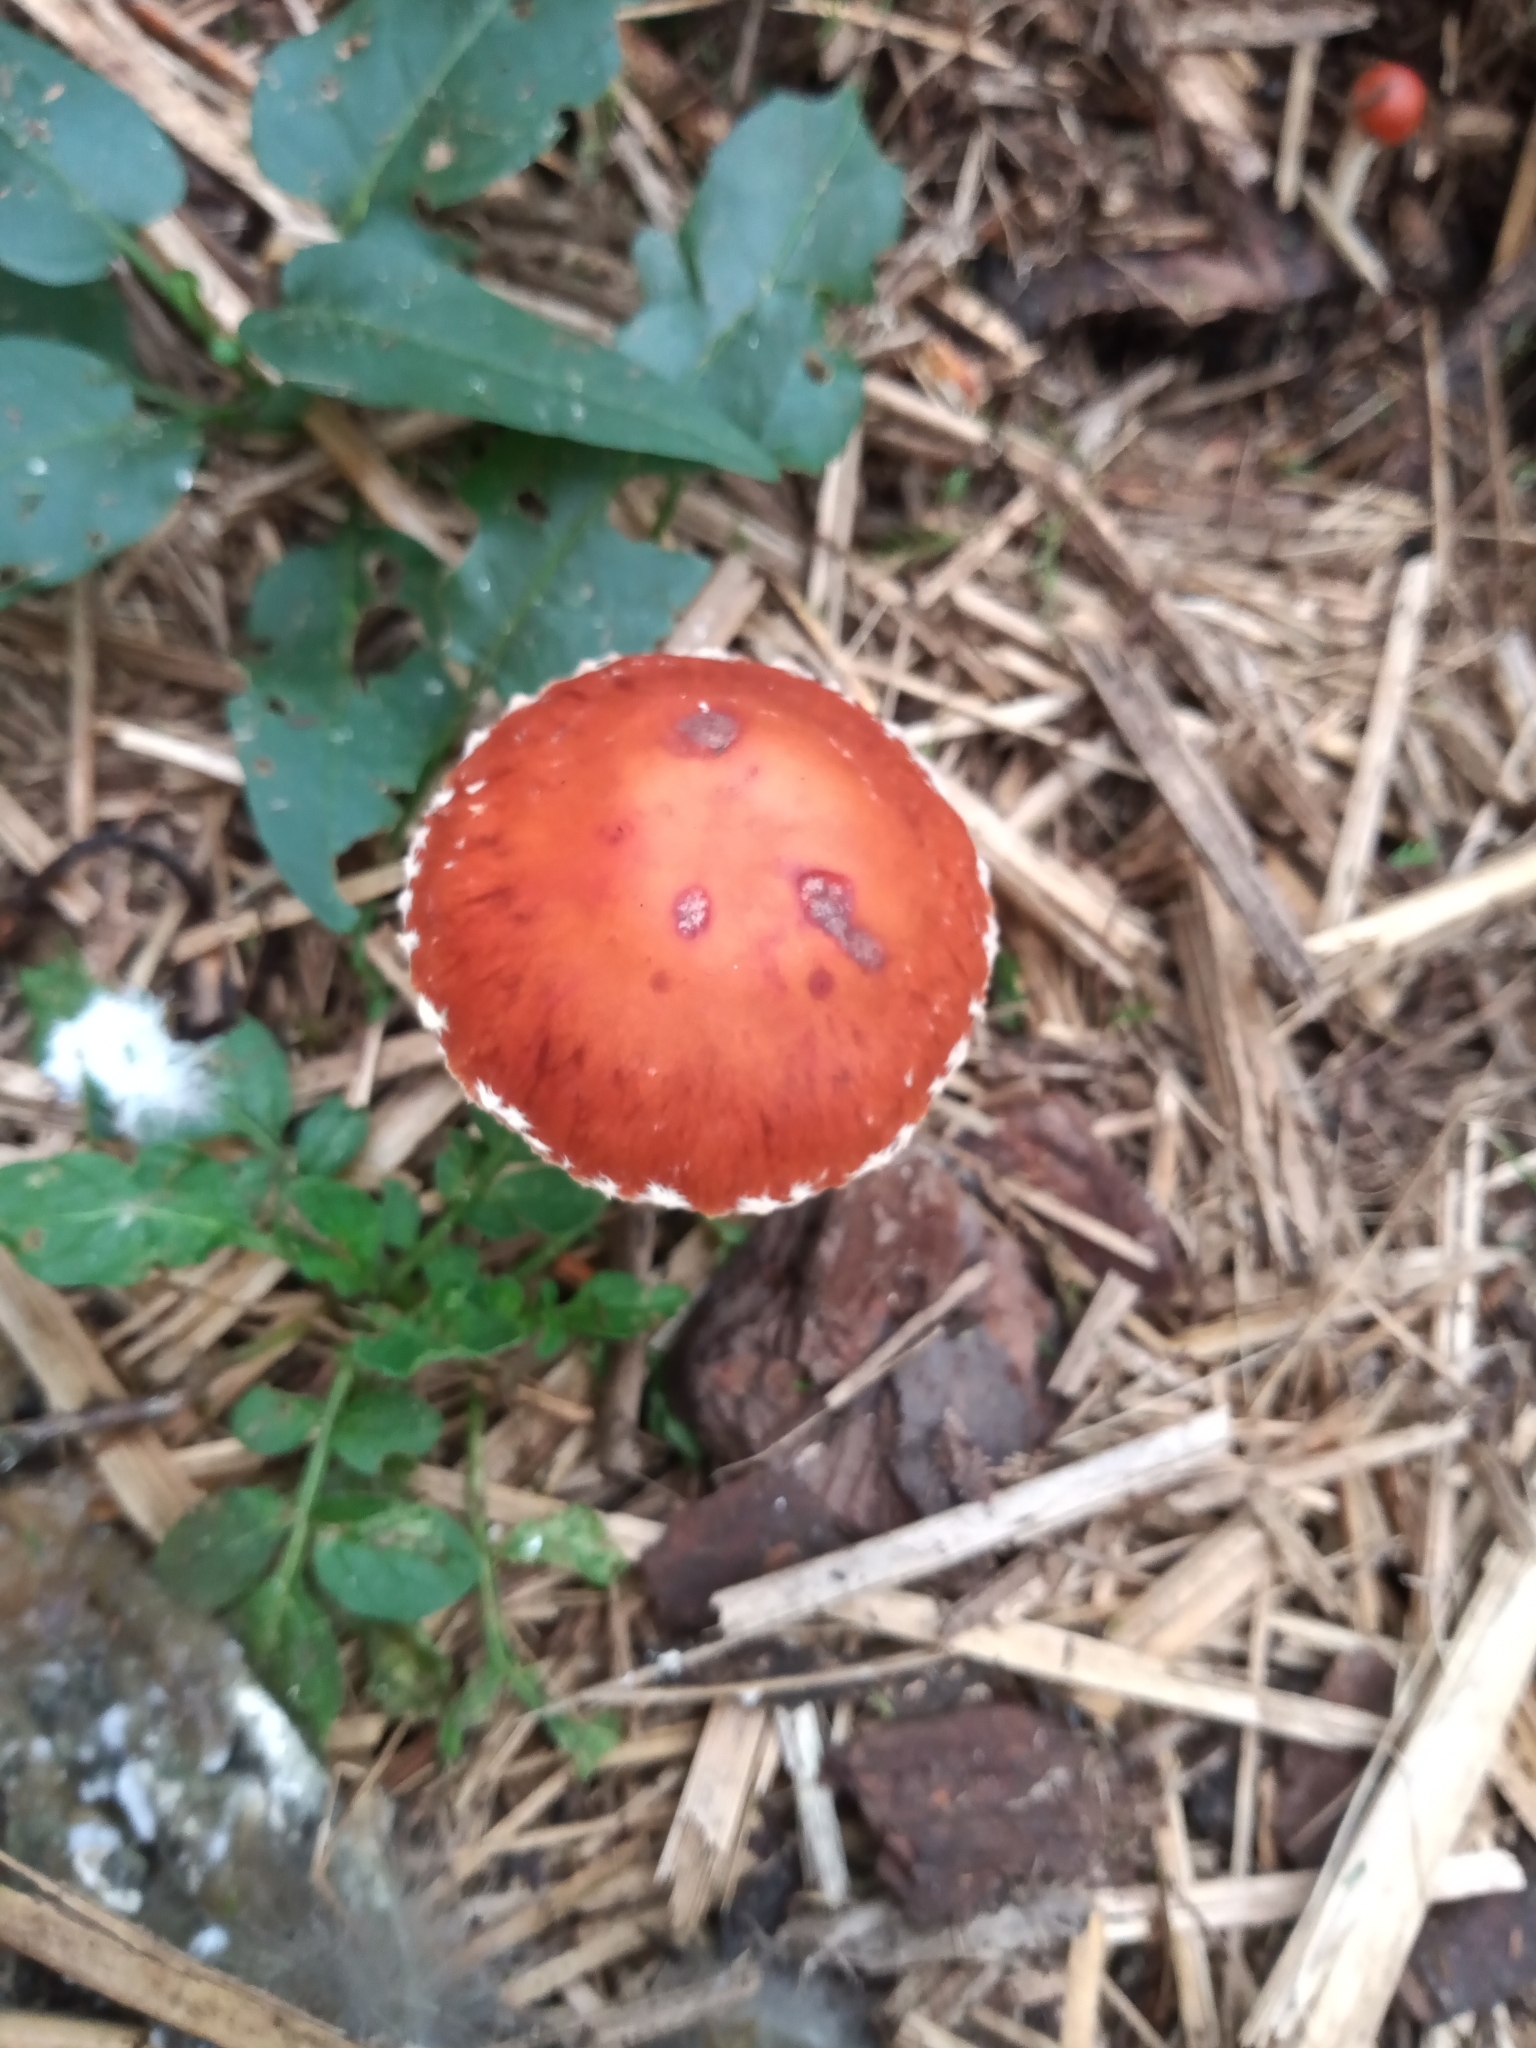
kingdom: Fungi
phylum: Basidiomycota
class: Agaricomycetes
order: Agaricales
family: Strophariaceae
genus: Leratiomyces
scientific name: Leratiomyces ceres
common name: Redlead roundhead
